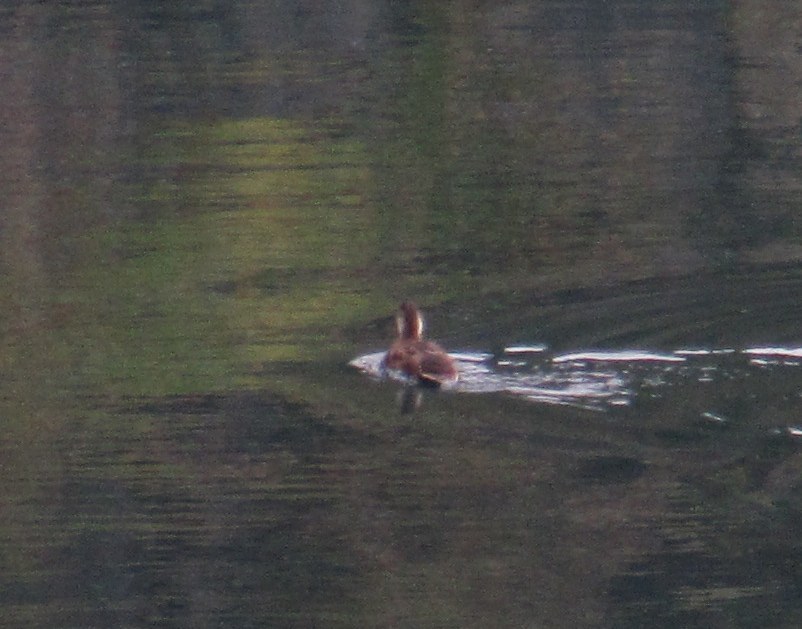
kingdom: Animalia
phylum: Chordata
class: Aves
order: Anseriformes
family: Anatidae
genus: Netta
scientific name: Netta rufina
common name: Red-crested pochard
